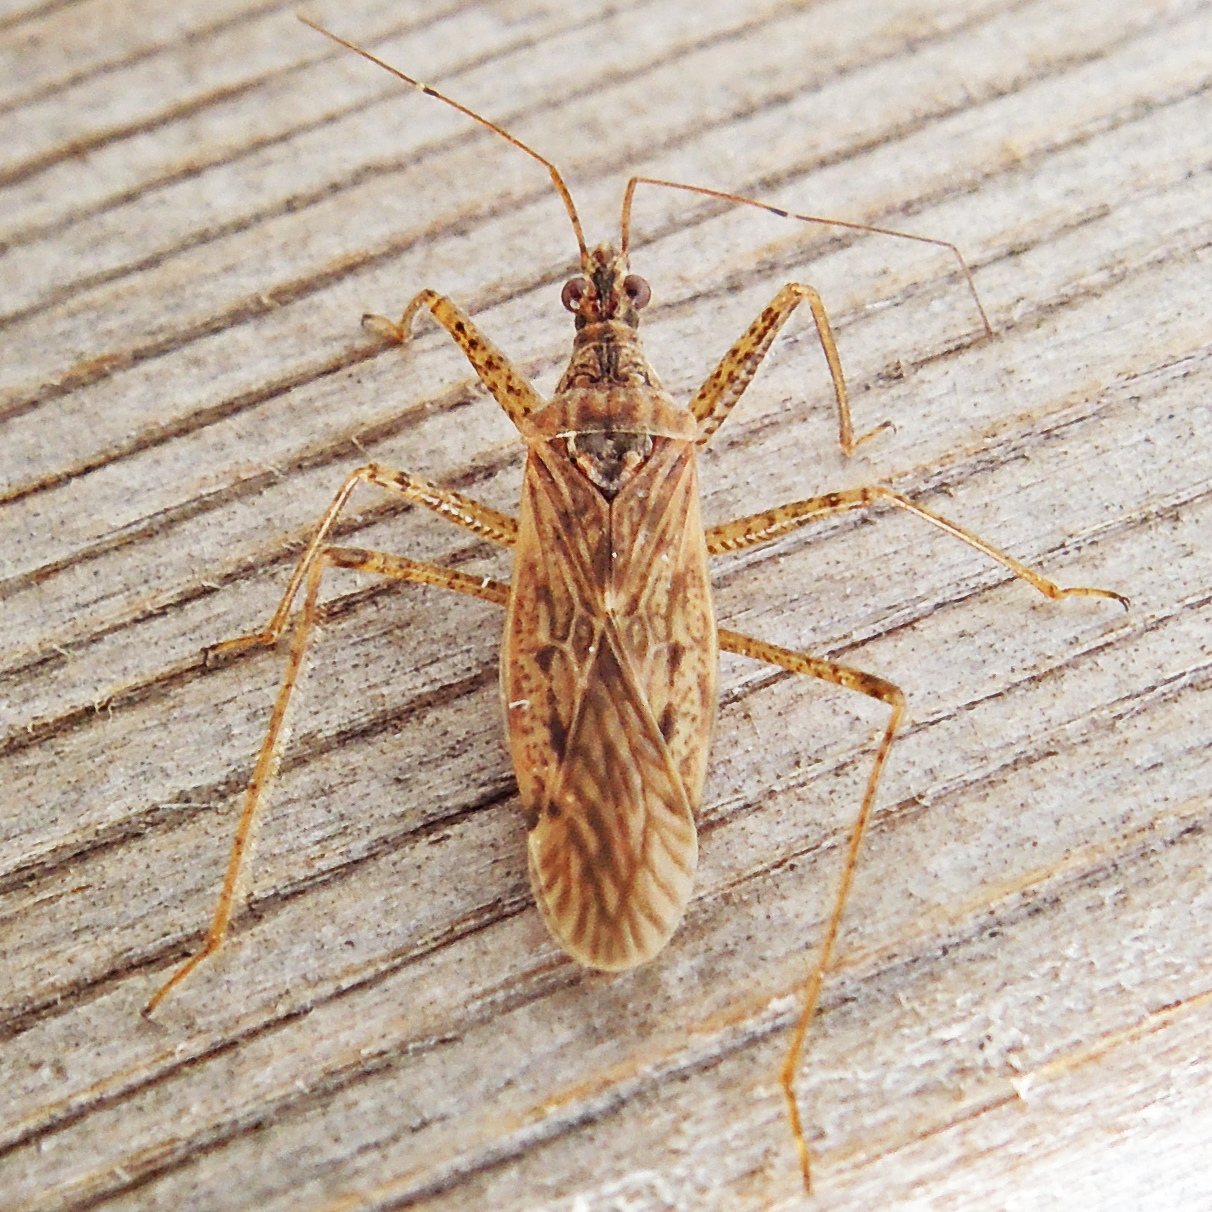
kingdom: Animalia
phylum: Arthropoda
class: Insecta
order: Hemiptera
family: Nabidae
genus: Nabis
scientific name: Nabis roseipennis
